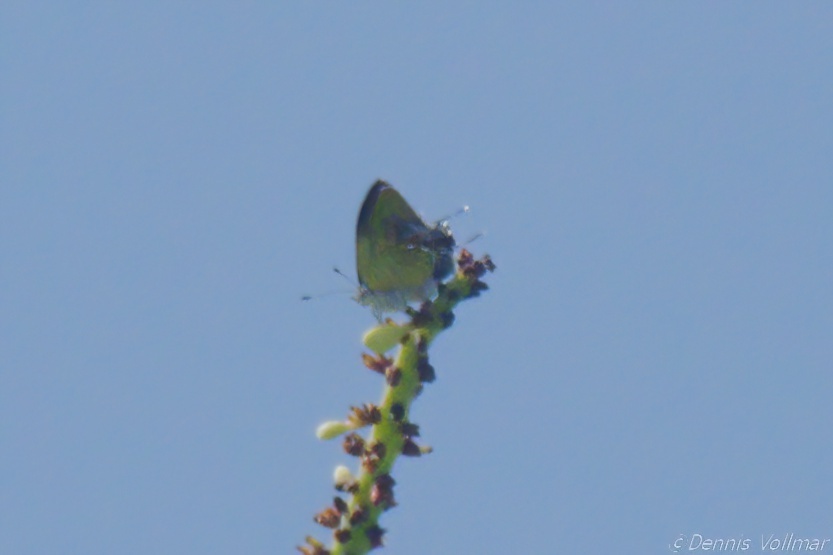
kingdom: Animalia
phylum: Arthropoda
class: Insecta
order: Lepidoptera
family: Lycaenidae
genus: Thecla
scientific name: Thecla maesites
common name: Verde azul hairstreak
